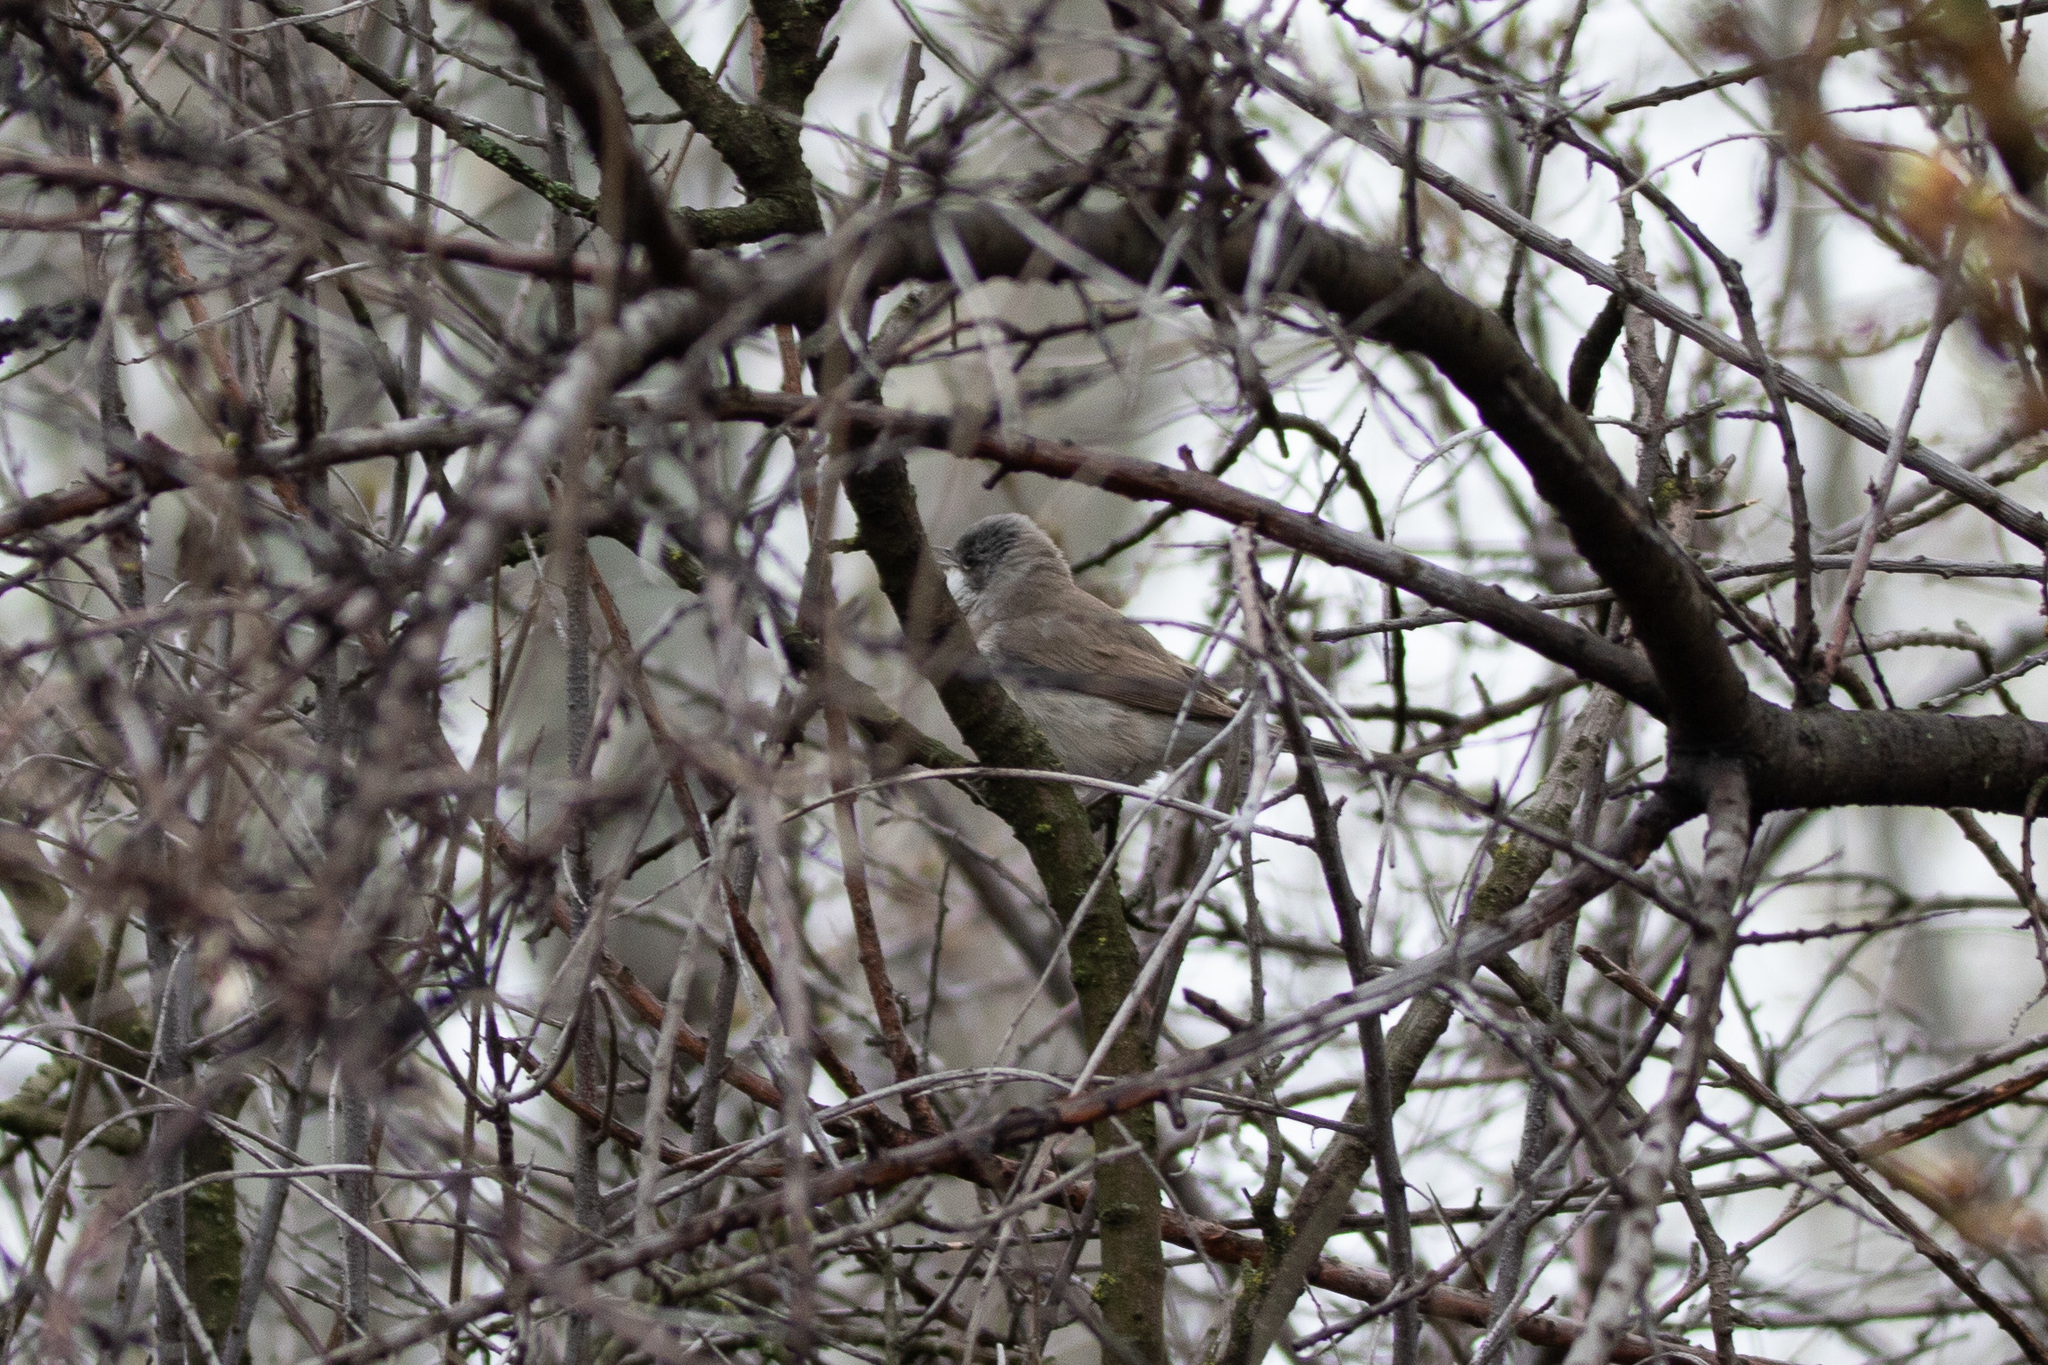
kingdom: Animalia
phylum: Chordata
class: Aves
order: Passeriformes
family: Sylviidae
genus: Sylvia
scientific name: Sylvia curruca
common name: Lesser whitethroat
